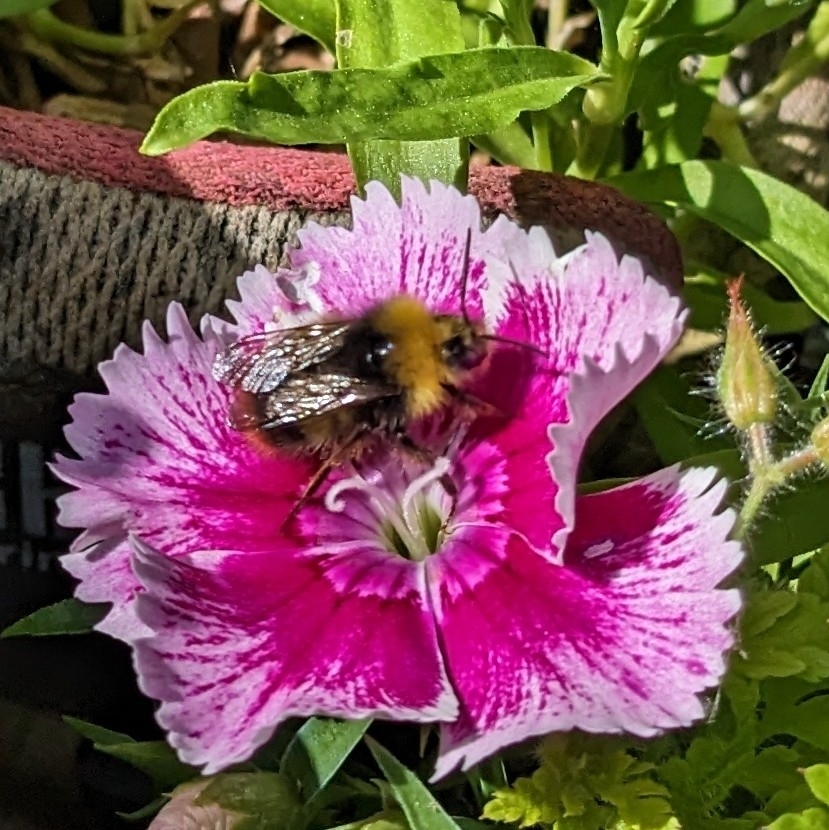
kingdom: Animalia
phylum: Arthropoda
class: Insecta
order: Hymenoptera
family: Apidae
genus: Bombus
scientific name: Bombus pratorum
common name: Early humble-bee
